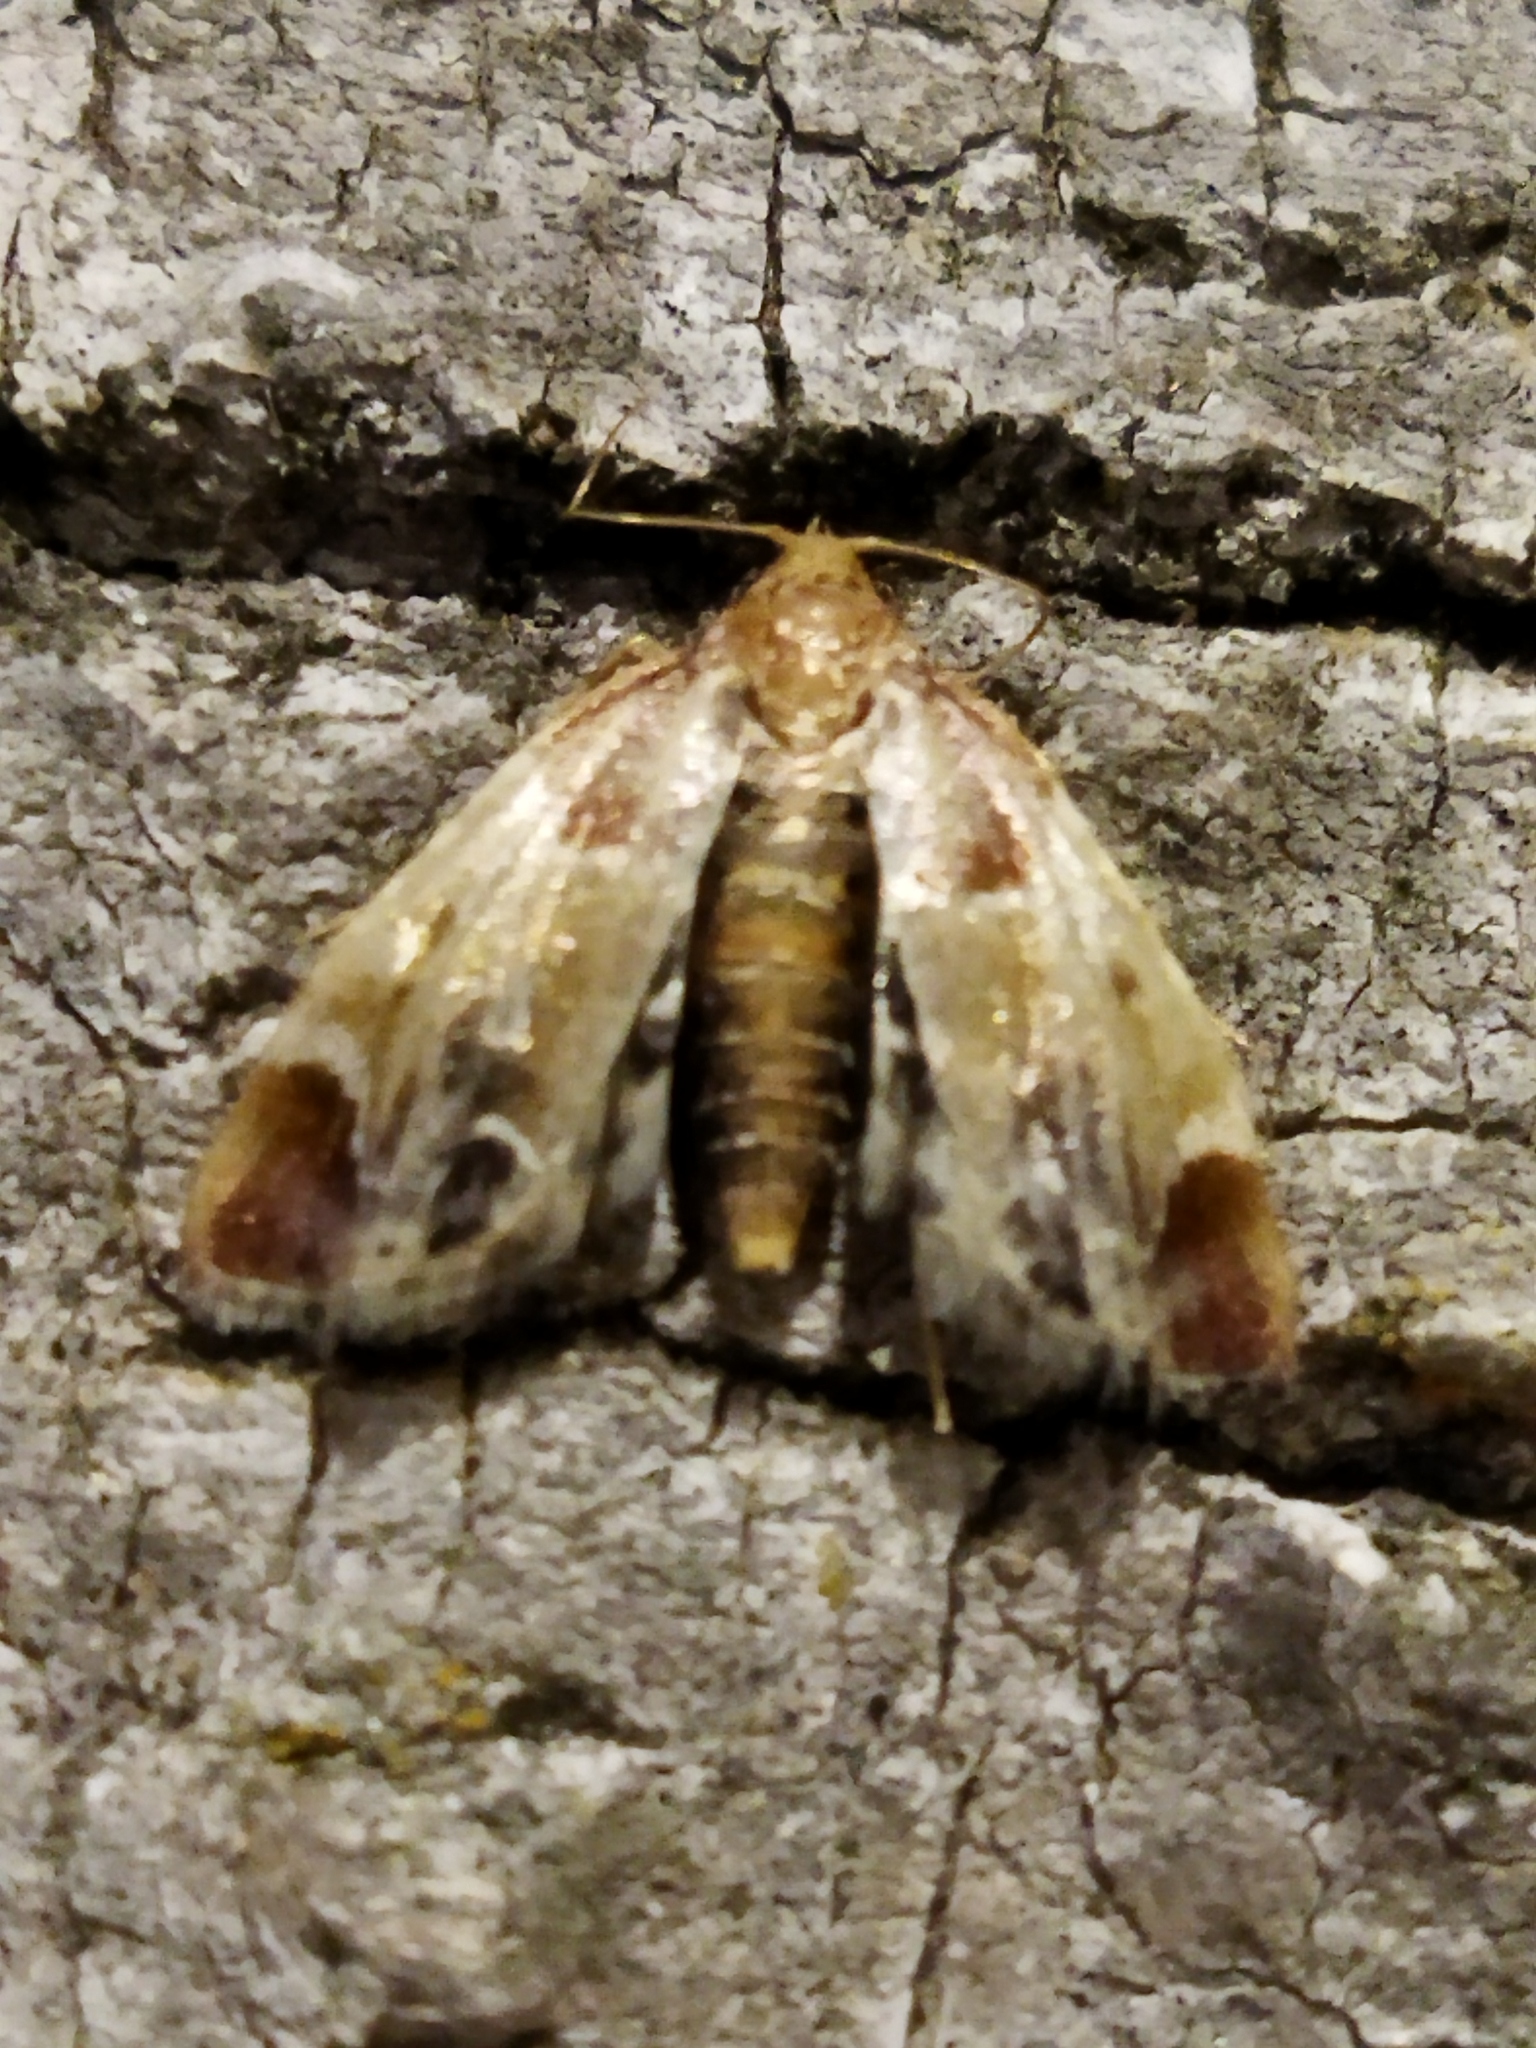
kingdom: Animalia
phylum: Arthropoda
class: Insecta
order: Lepidoptera
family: Pyralidae
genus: Pyralis
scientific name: Pyralis farinalis
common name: Meal moth
